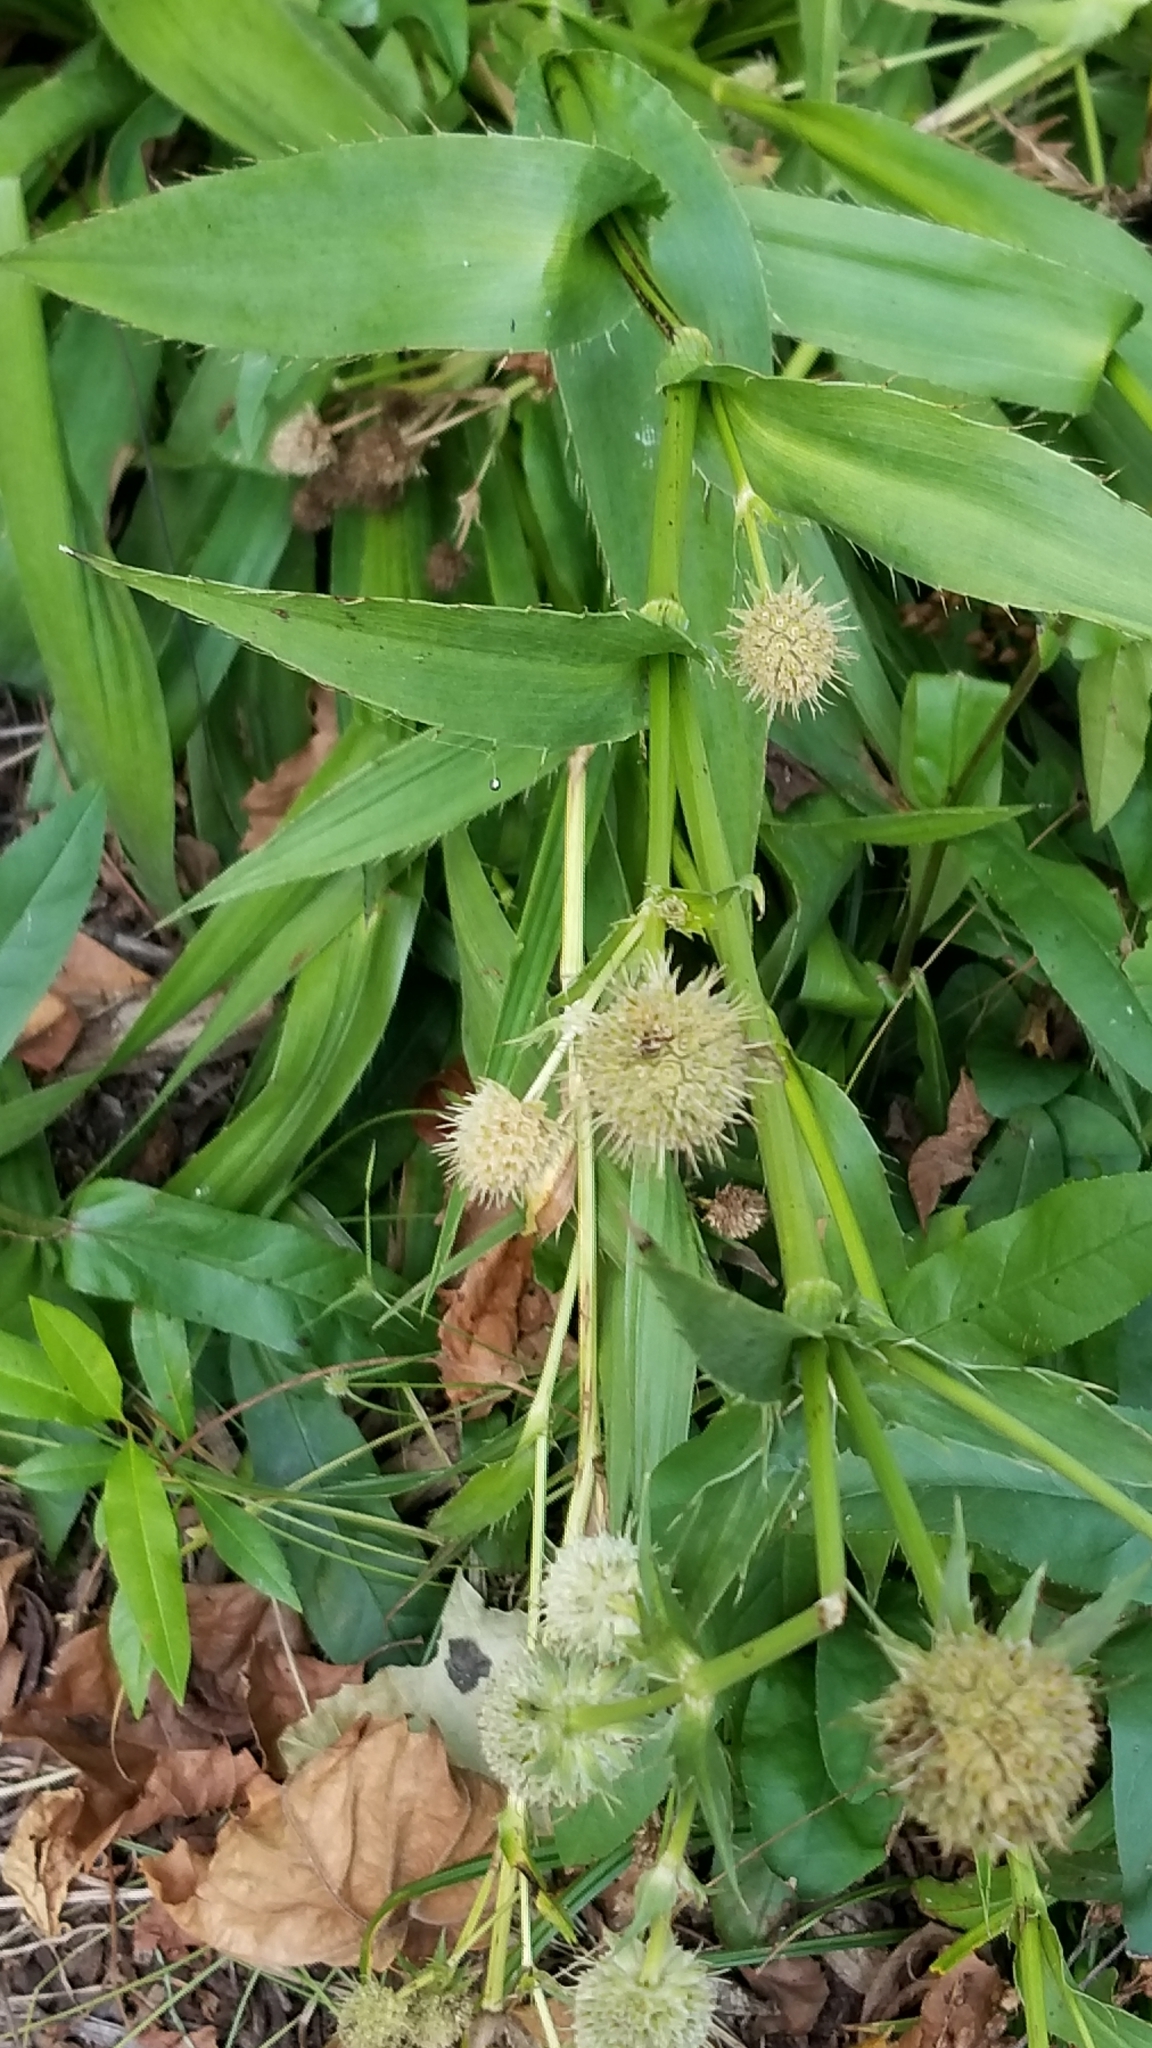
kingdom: Plantae
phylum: Tracheophyta
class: Magnoliopsida
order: Apiales
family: Apiaceae
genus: Eryngium
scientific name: Eryngium yuccifolium
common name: Button eryngo
